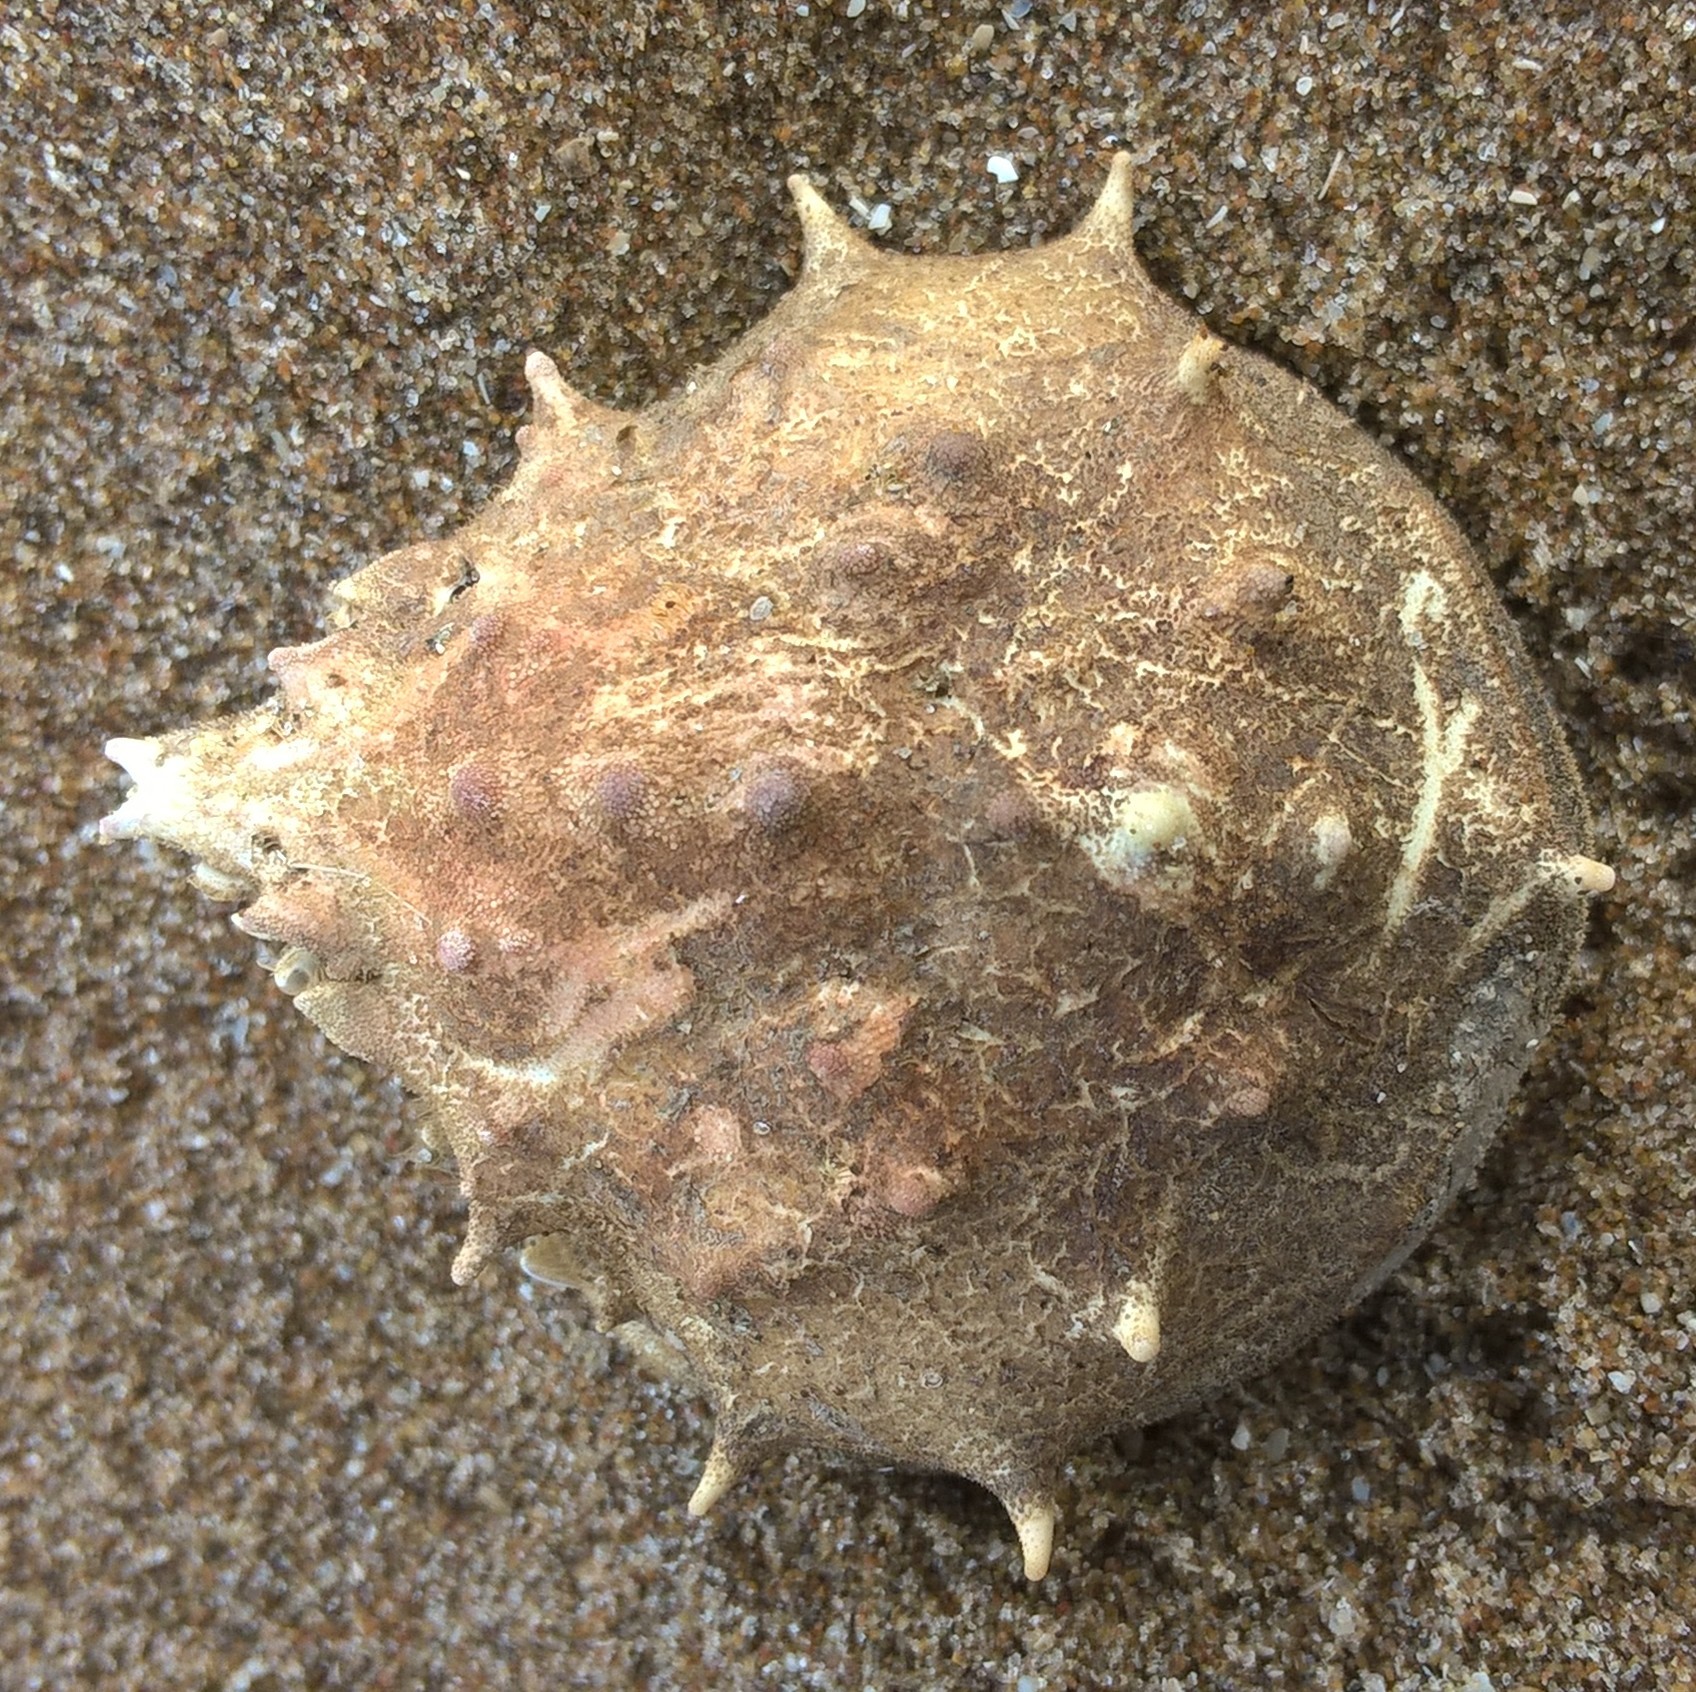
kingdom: Animalia
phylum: Arthropoda
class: Malacostraca
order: Decapoda
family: Epialtidae
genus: Libinia
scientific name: Libinia spinosa
